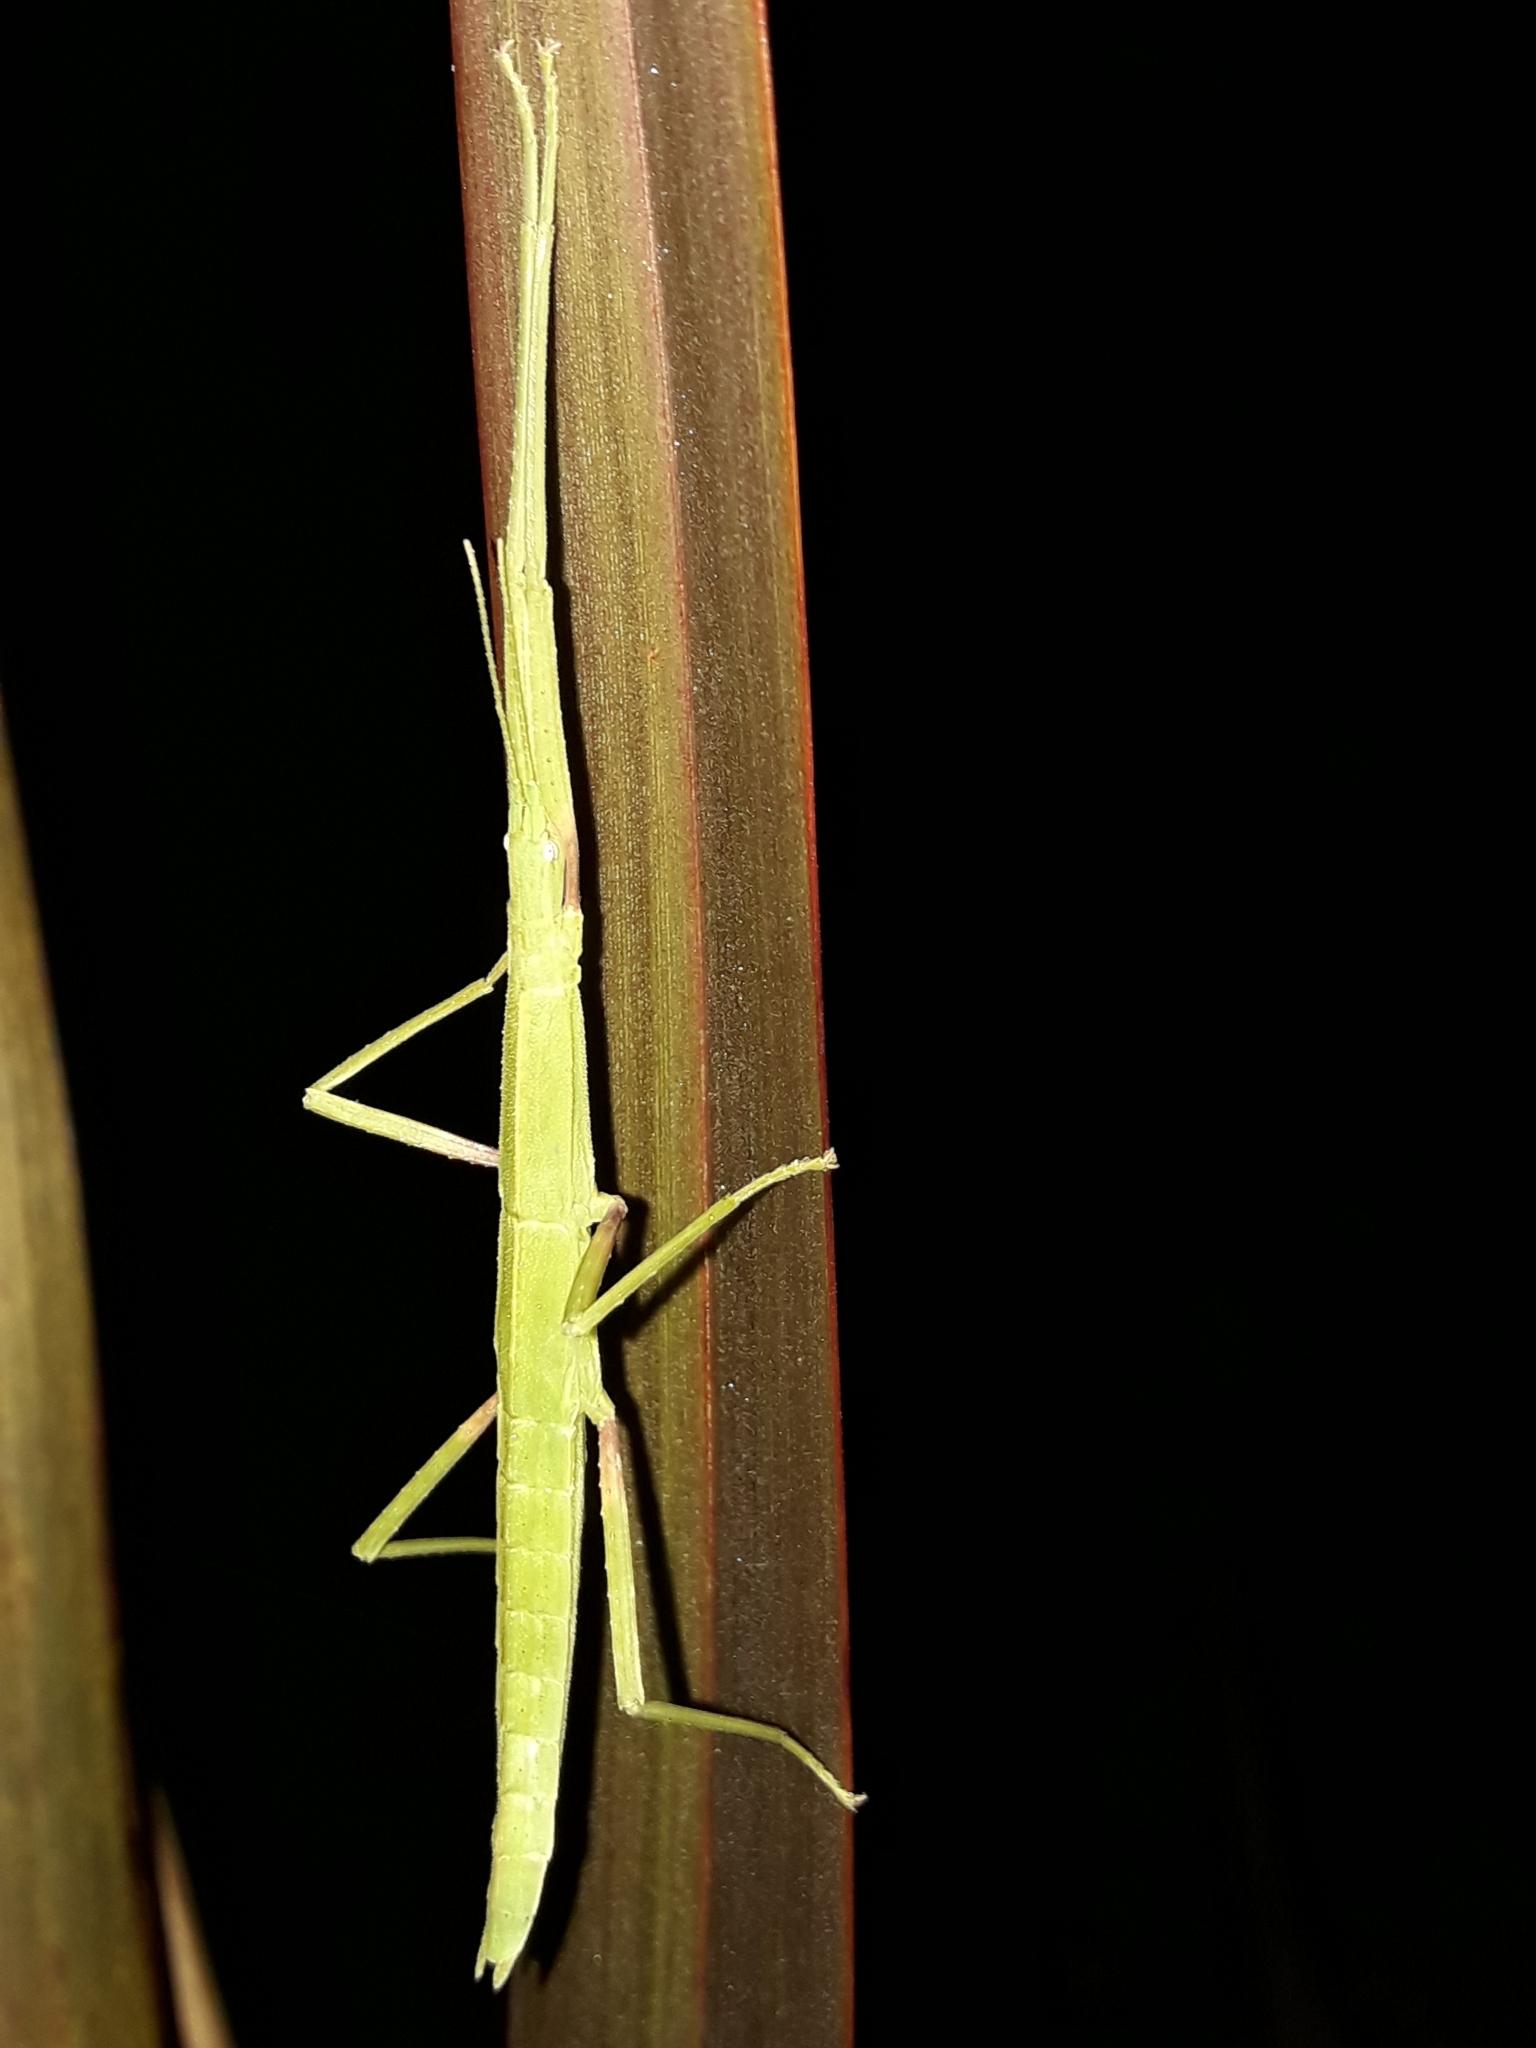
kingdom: Animalia
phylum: Arthropoda
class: Insecta
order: Phasmida
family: Phasmatidae
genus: Tectarchus
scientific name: Tectarchus huttoni
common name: The common ridge-backed stick insect
